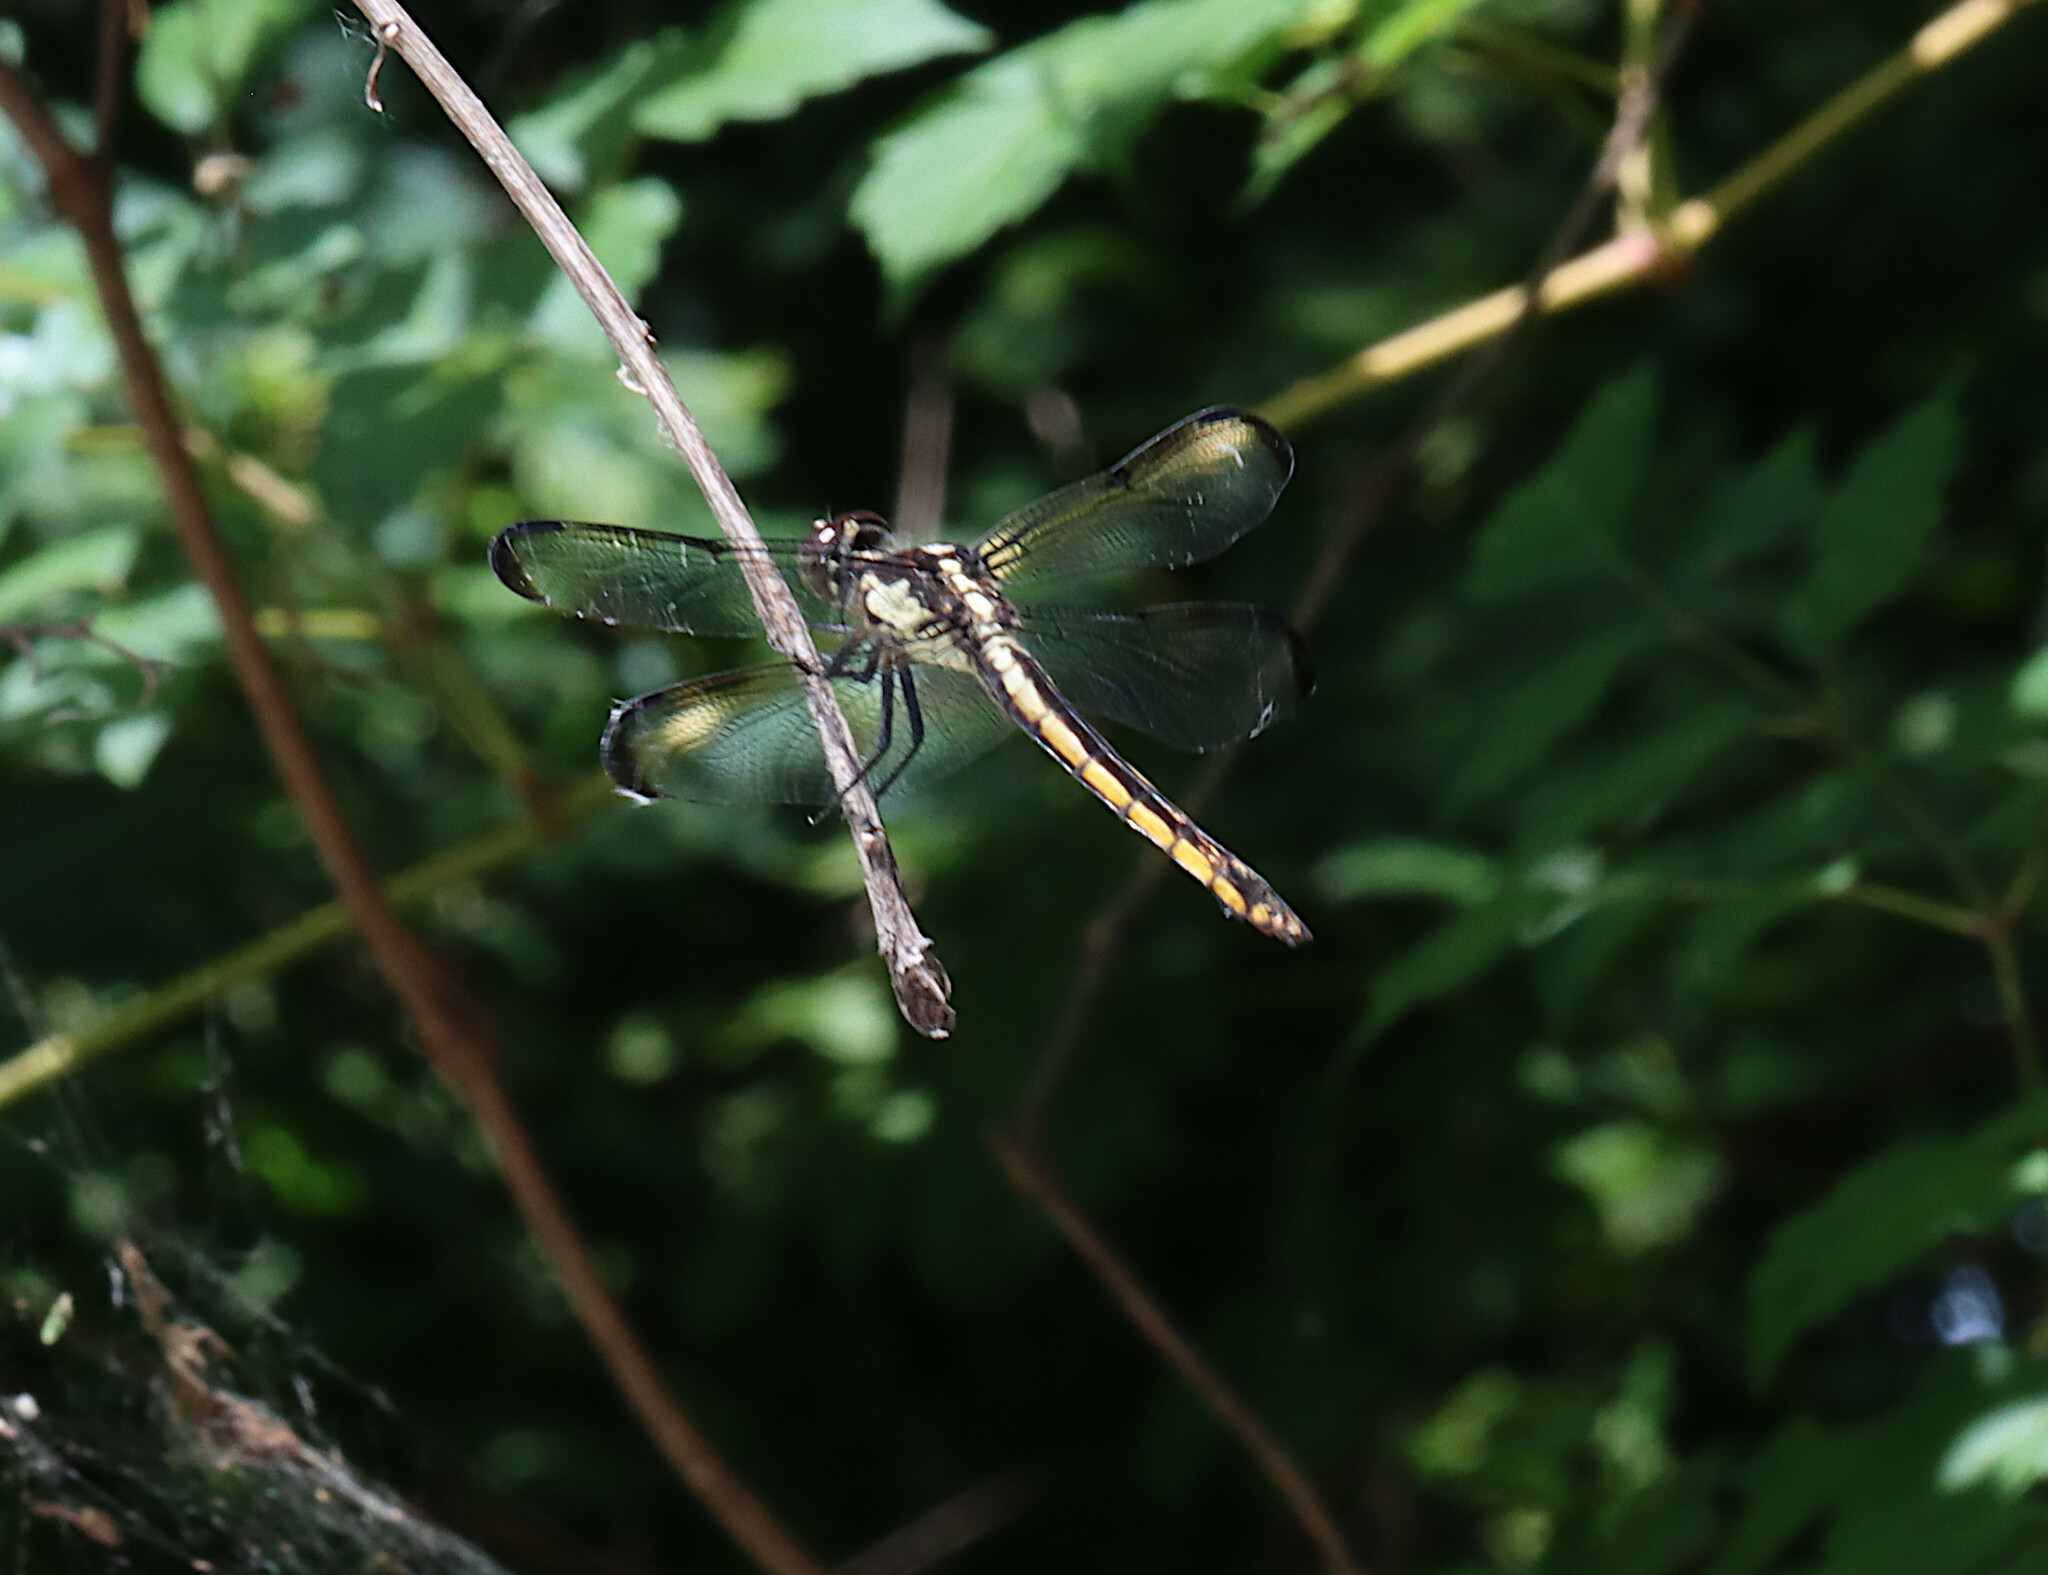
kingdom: Animalia
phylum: Arthropoda
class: Insecta
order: Odonata
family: Libellulidae
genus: Libellula
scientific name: Libellula incesta
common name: Slaty skimmer
